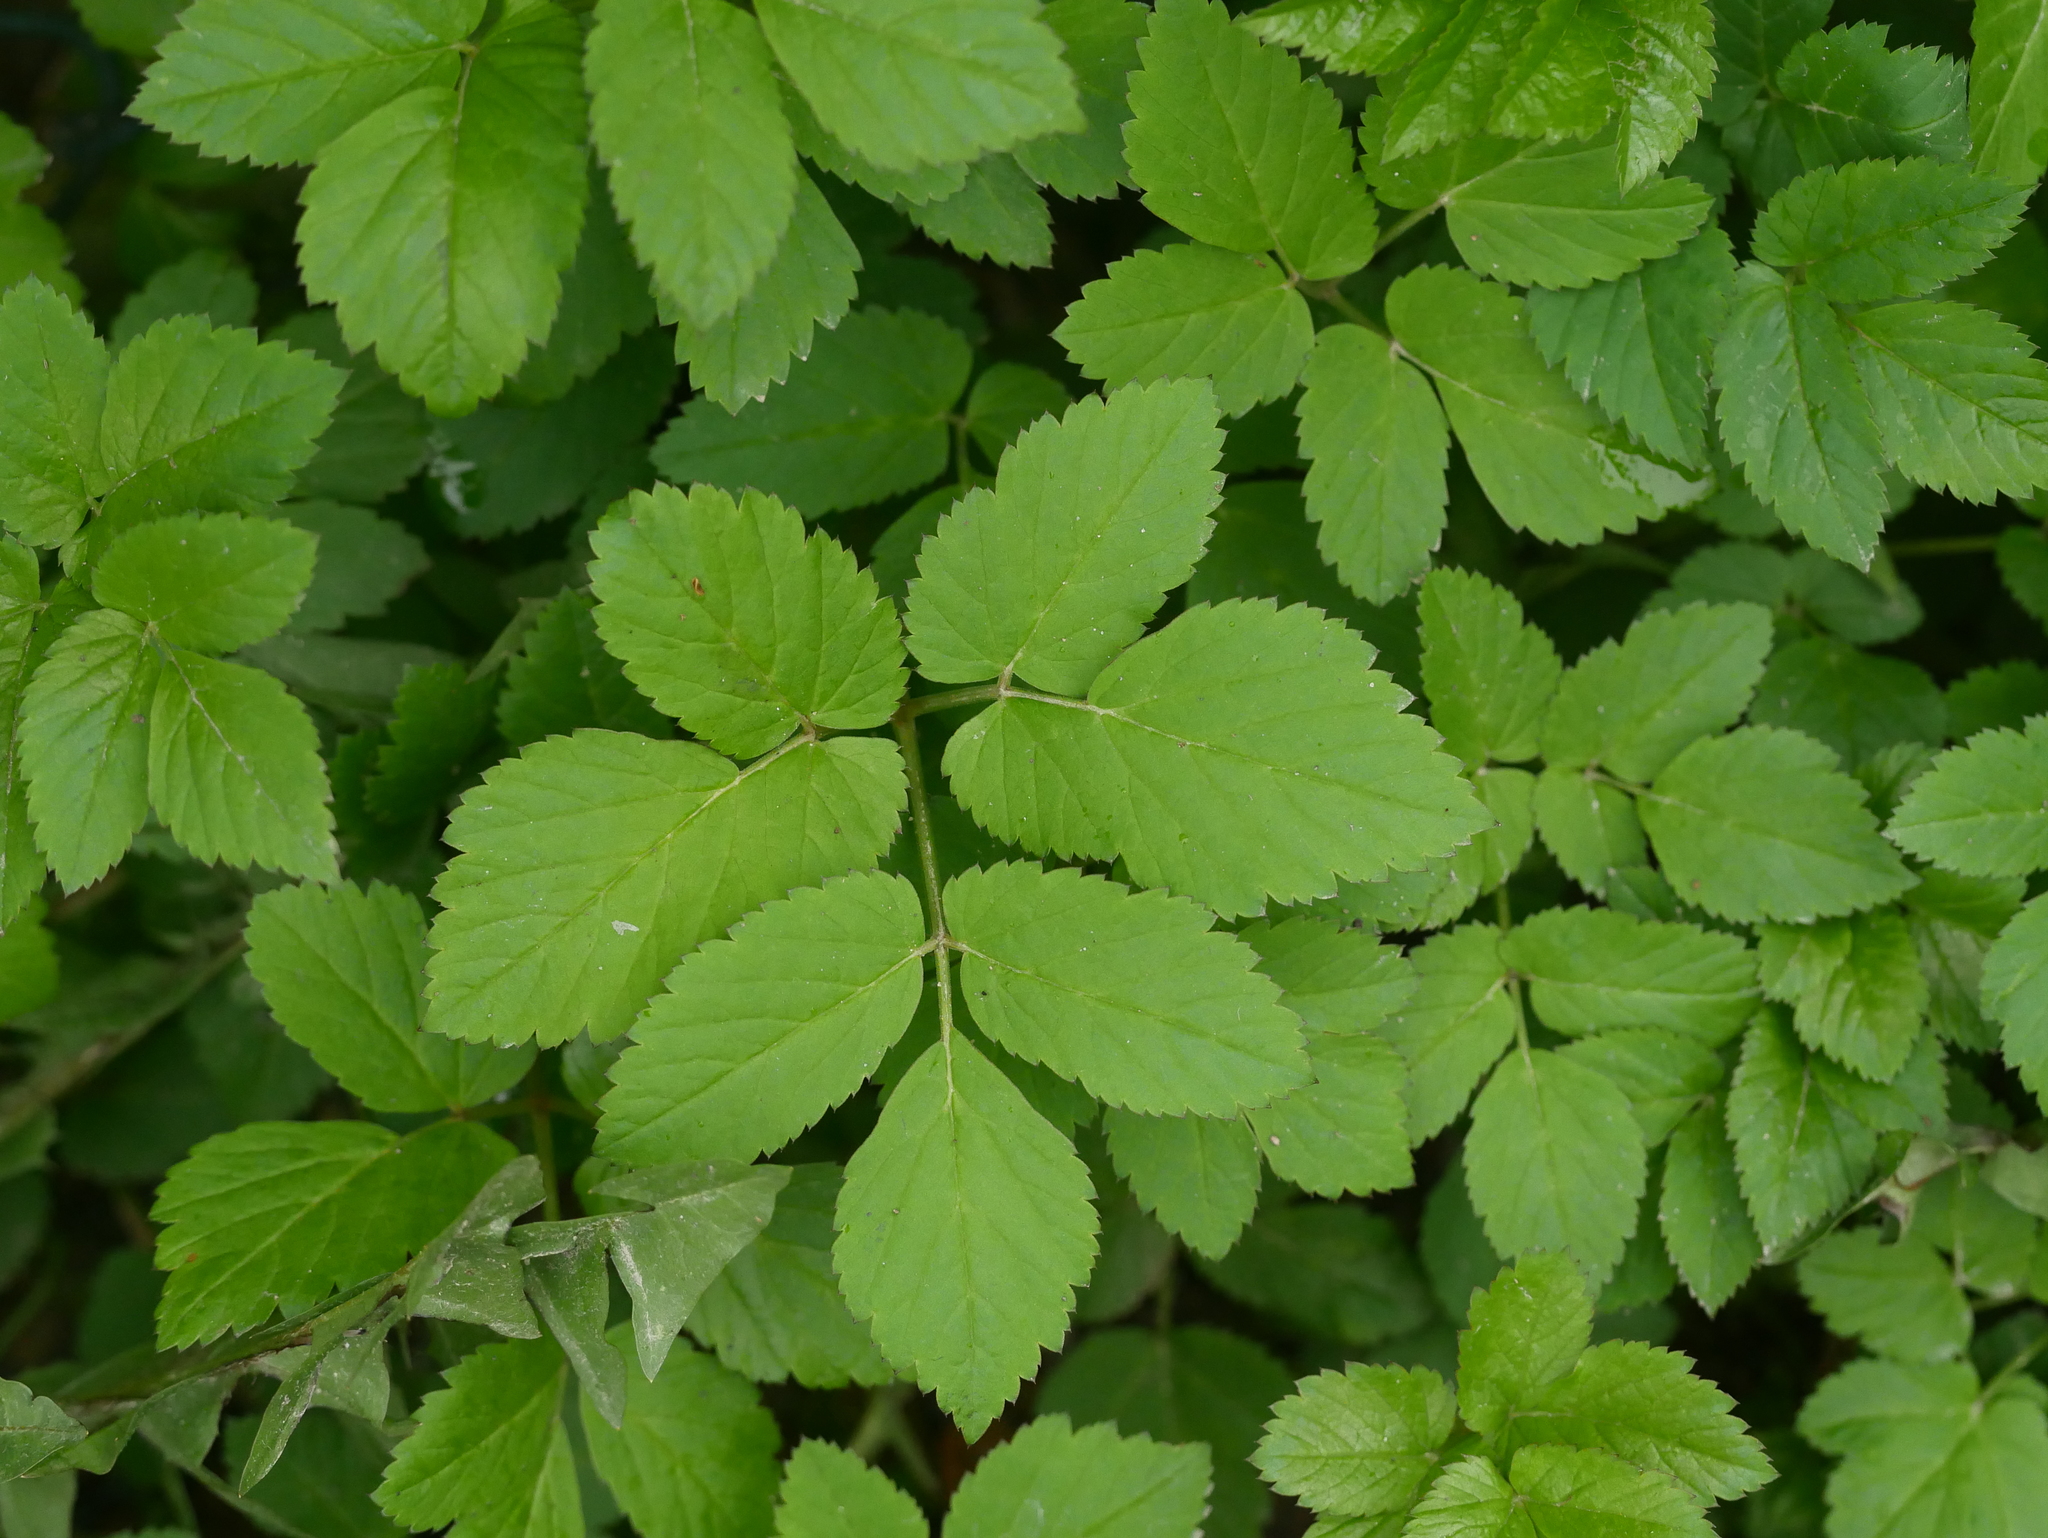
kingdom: Plantae
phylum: Tracheophyta
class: Magnoliopsida
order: Apiales
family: Apiaceae
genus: Aegopodium
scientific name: Aegopodium podagraria
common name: Ground-elder
